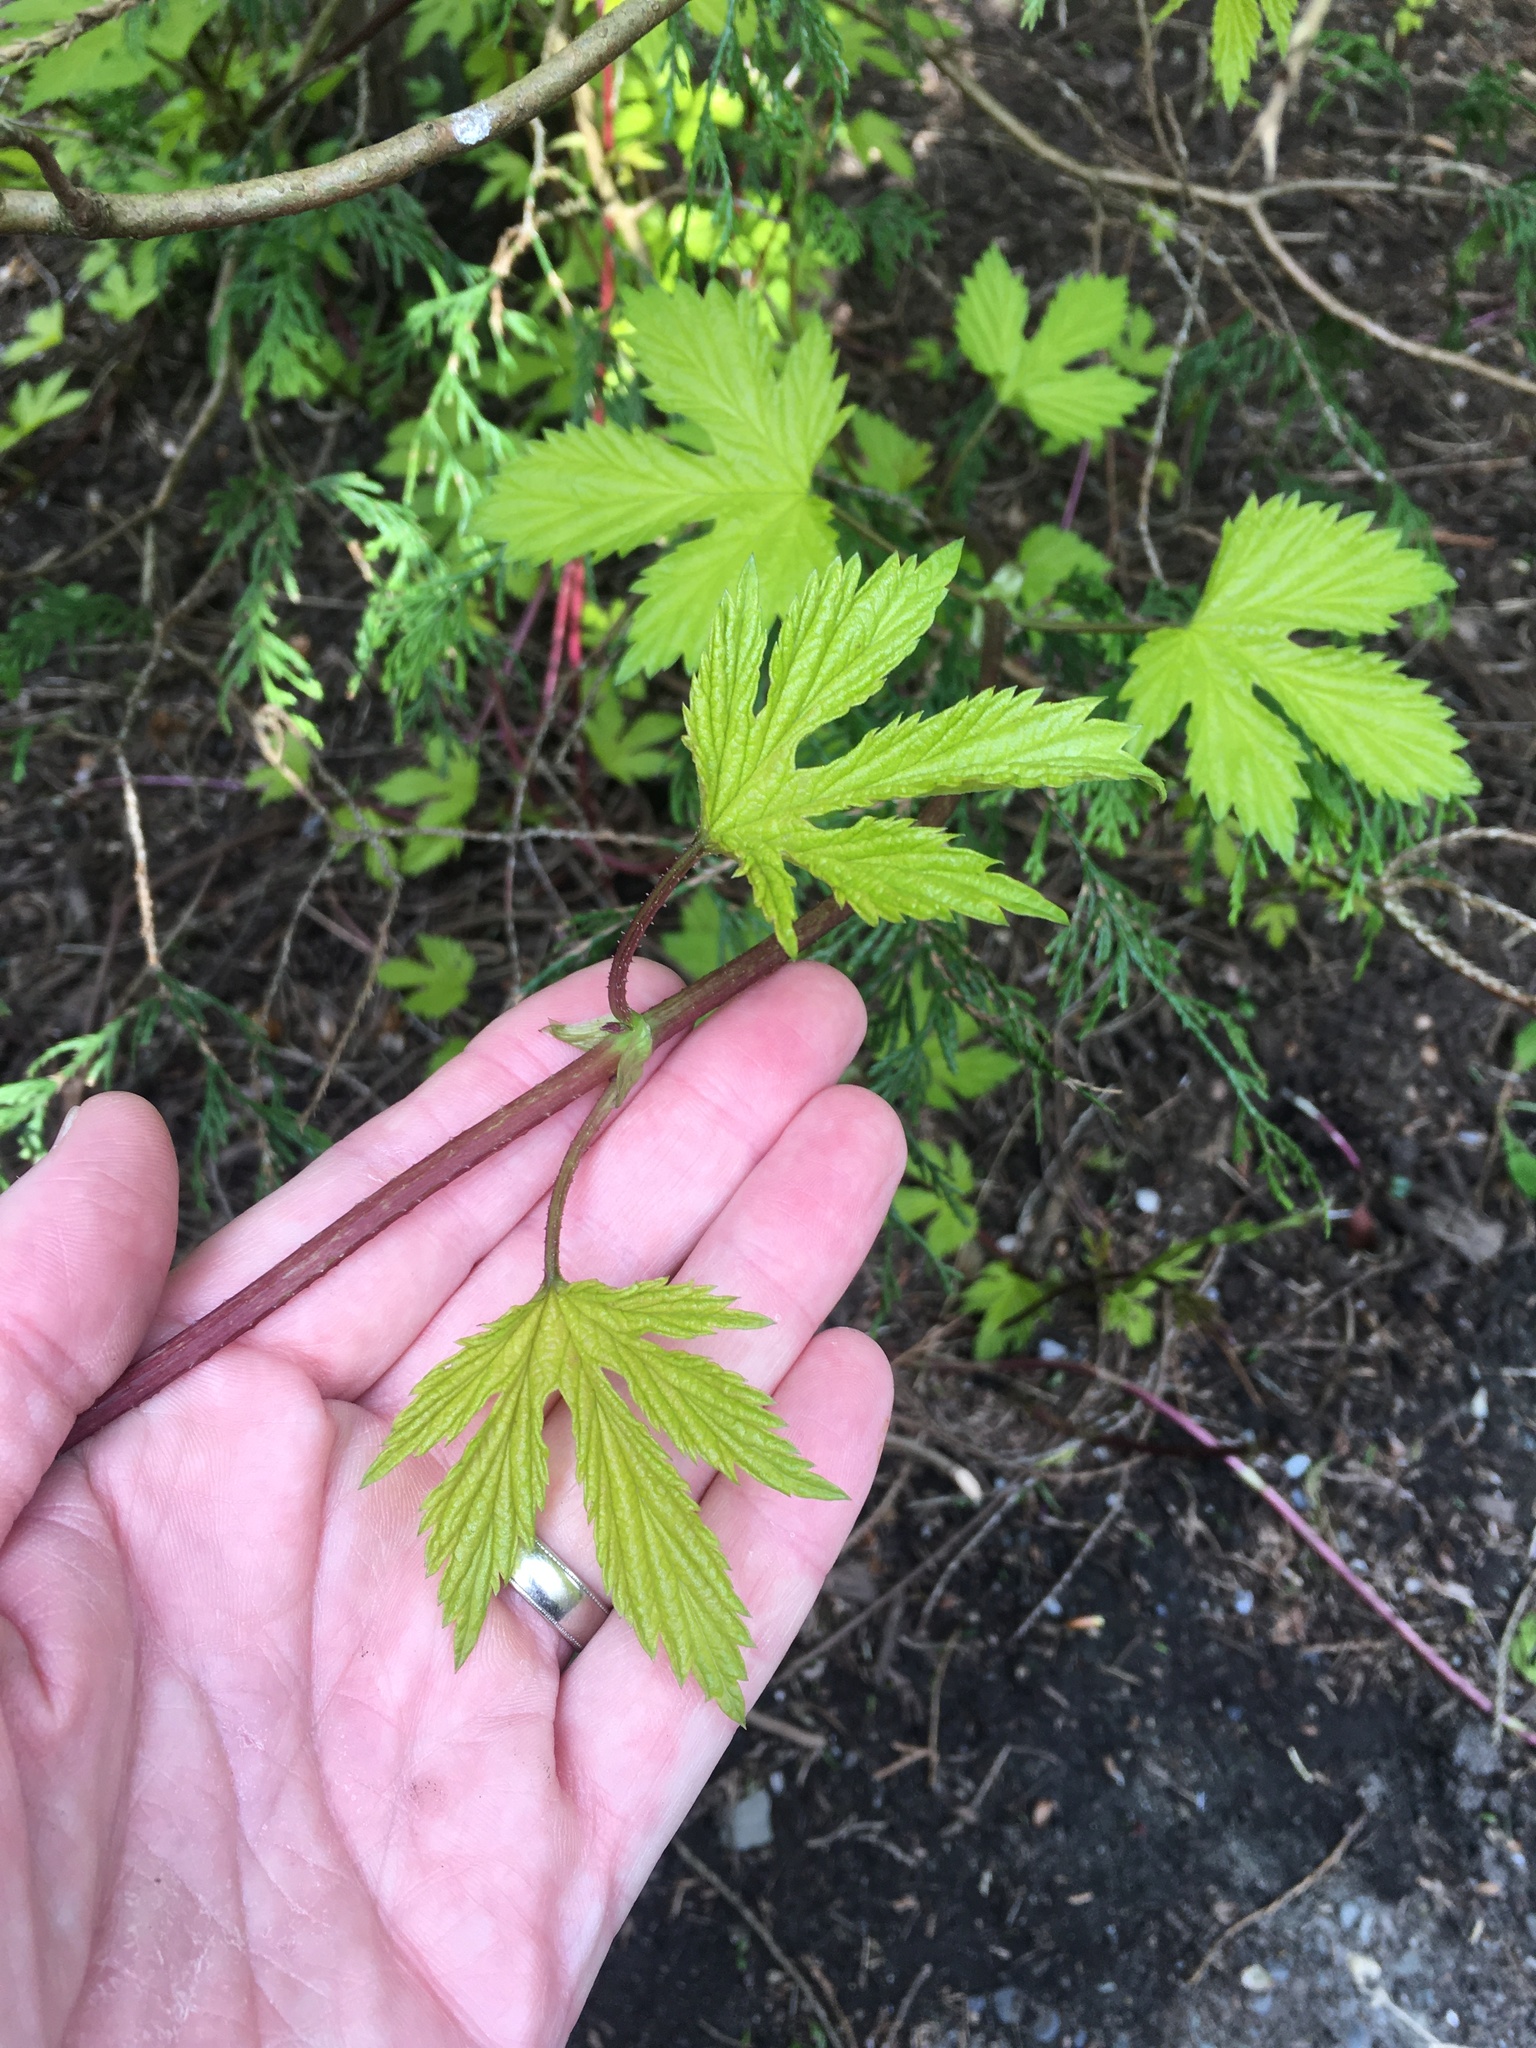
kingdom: Plantae
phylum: Tracheophyta
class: Magnoliopsida
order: Rosales
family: Cannabaceae
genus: Humulus
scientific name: Humulus lupulus
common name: Hop
